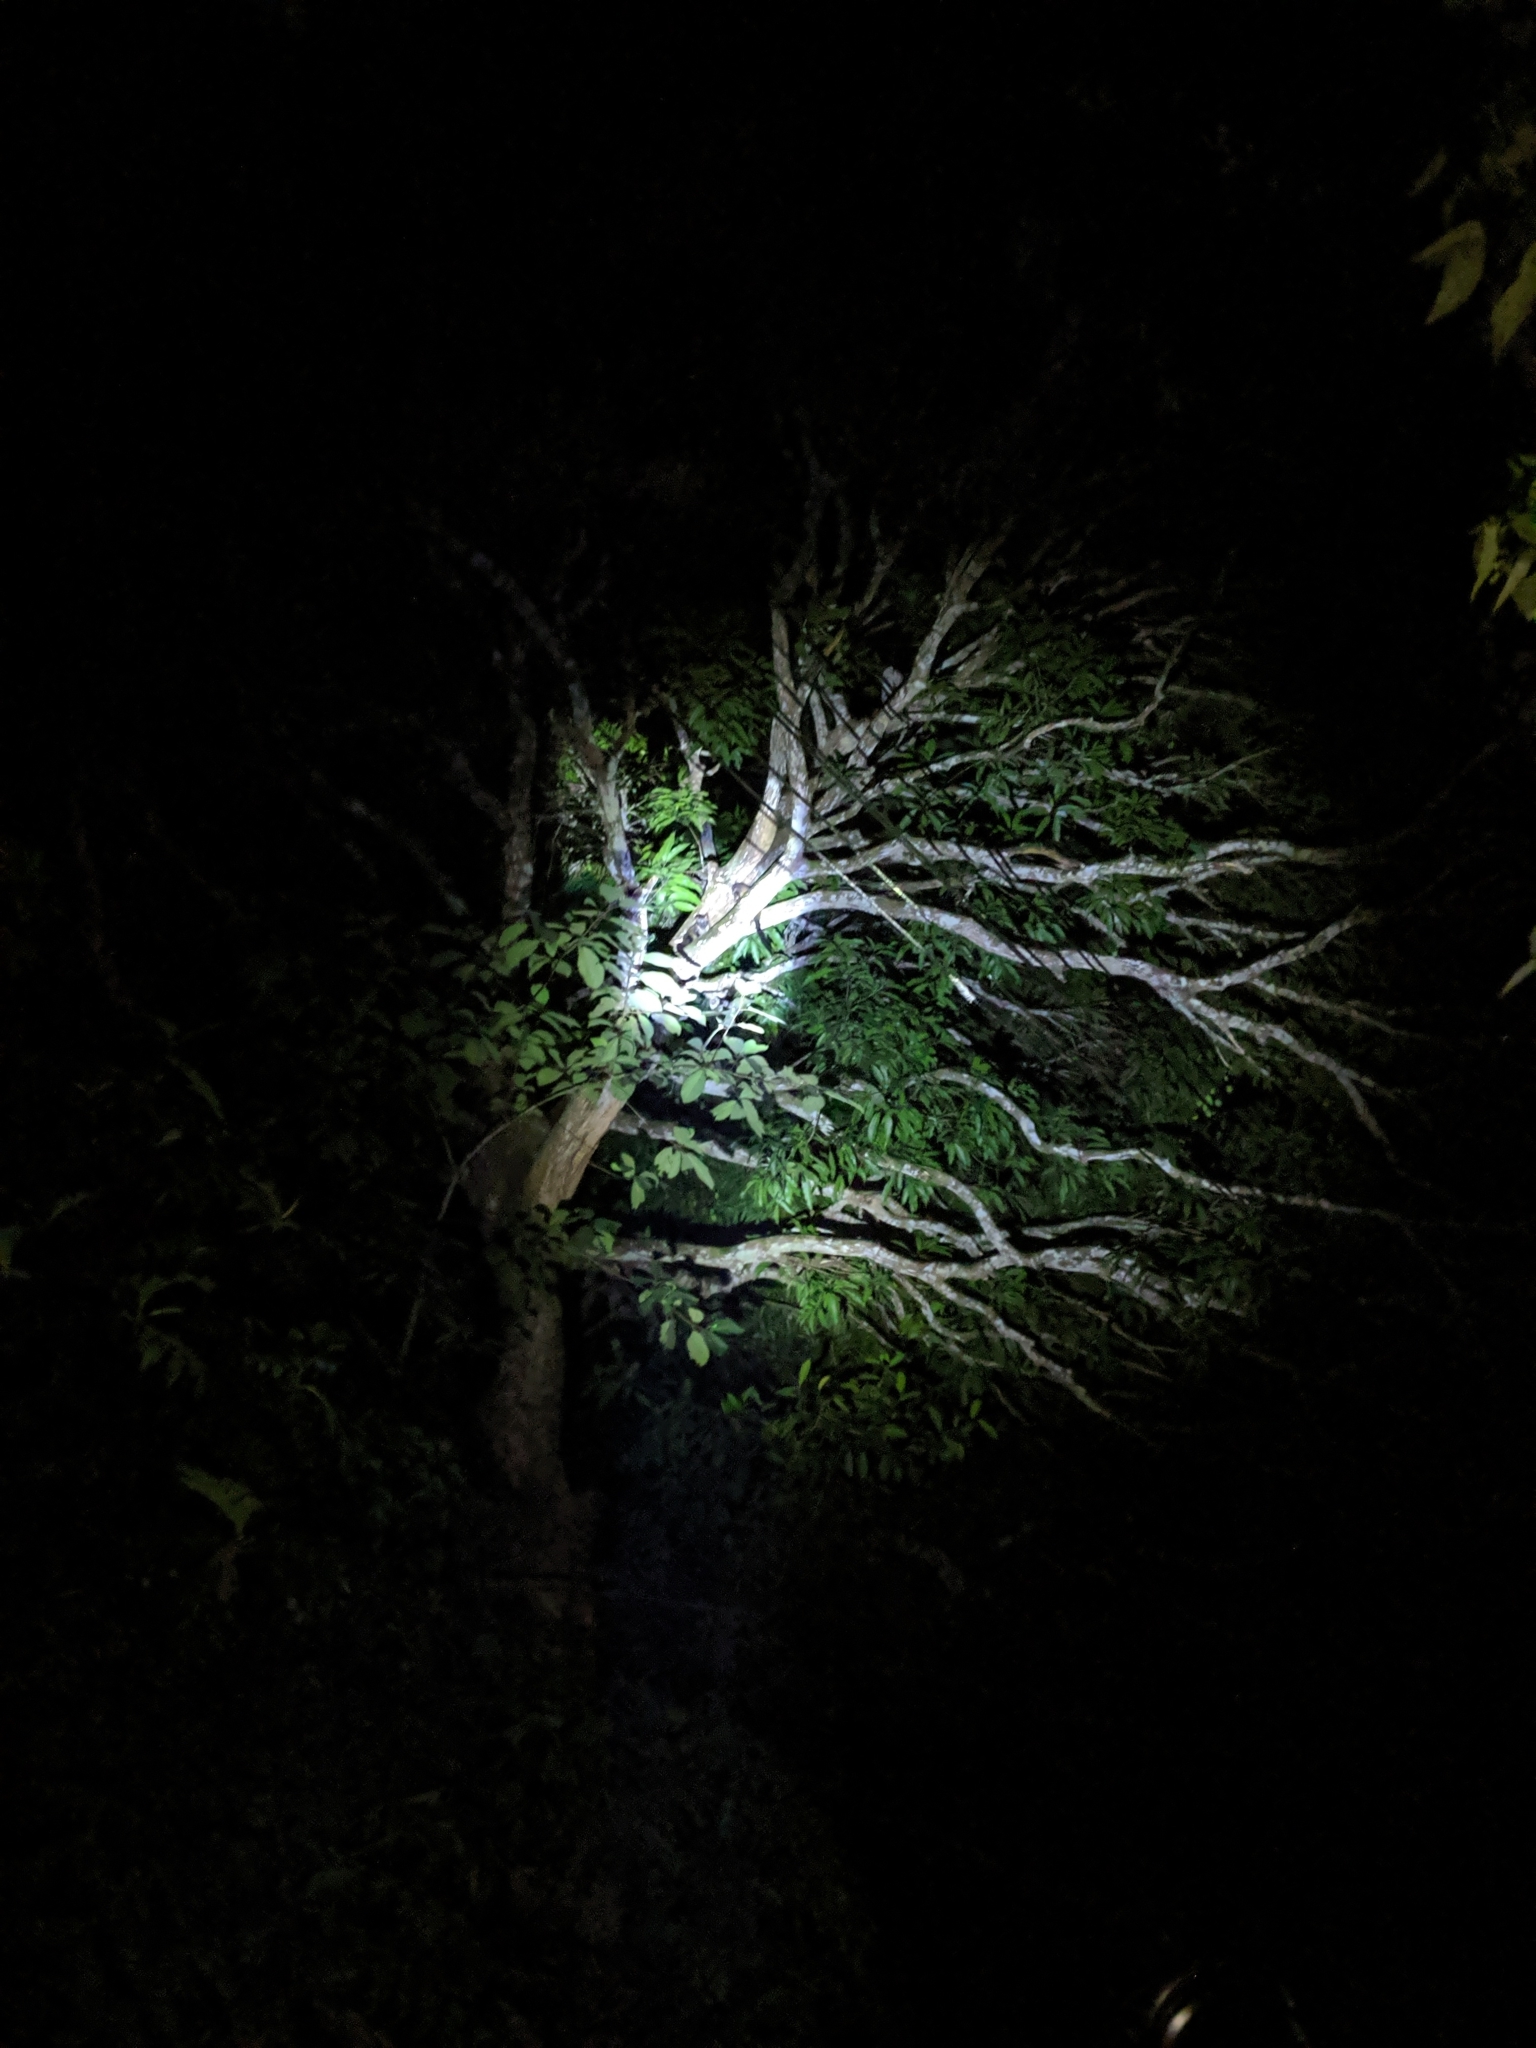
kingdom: Animalia
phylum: Chordata
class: Mammalia
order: Carnivora
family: Viverridae
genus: Paradoxurus
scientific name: Paradoxurus hermaphroditus
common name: Common palm civet
